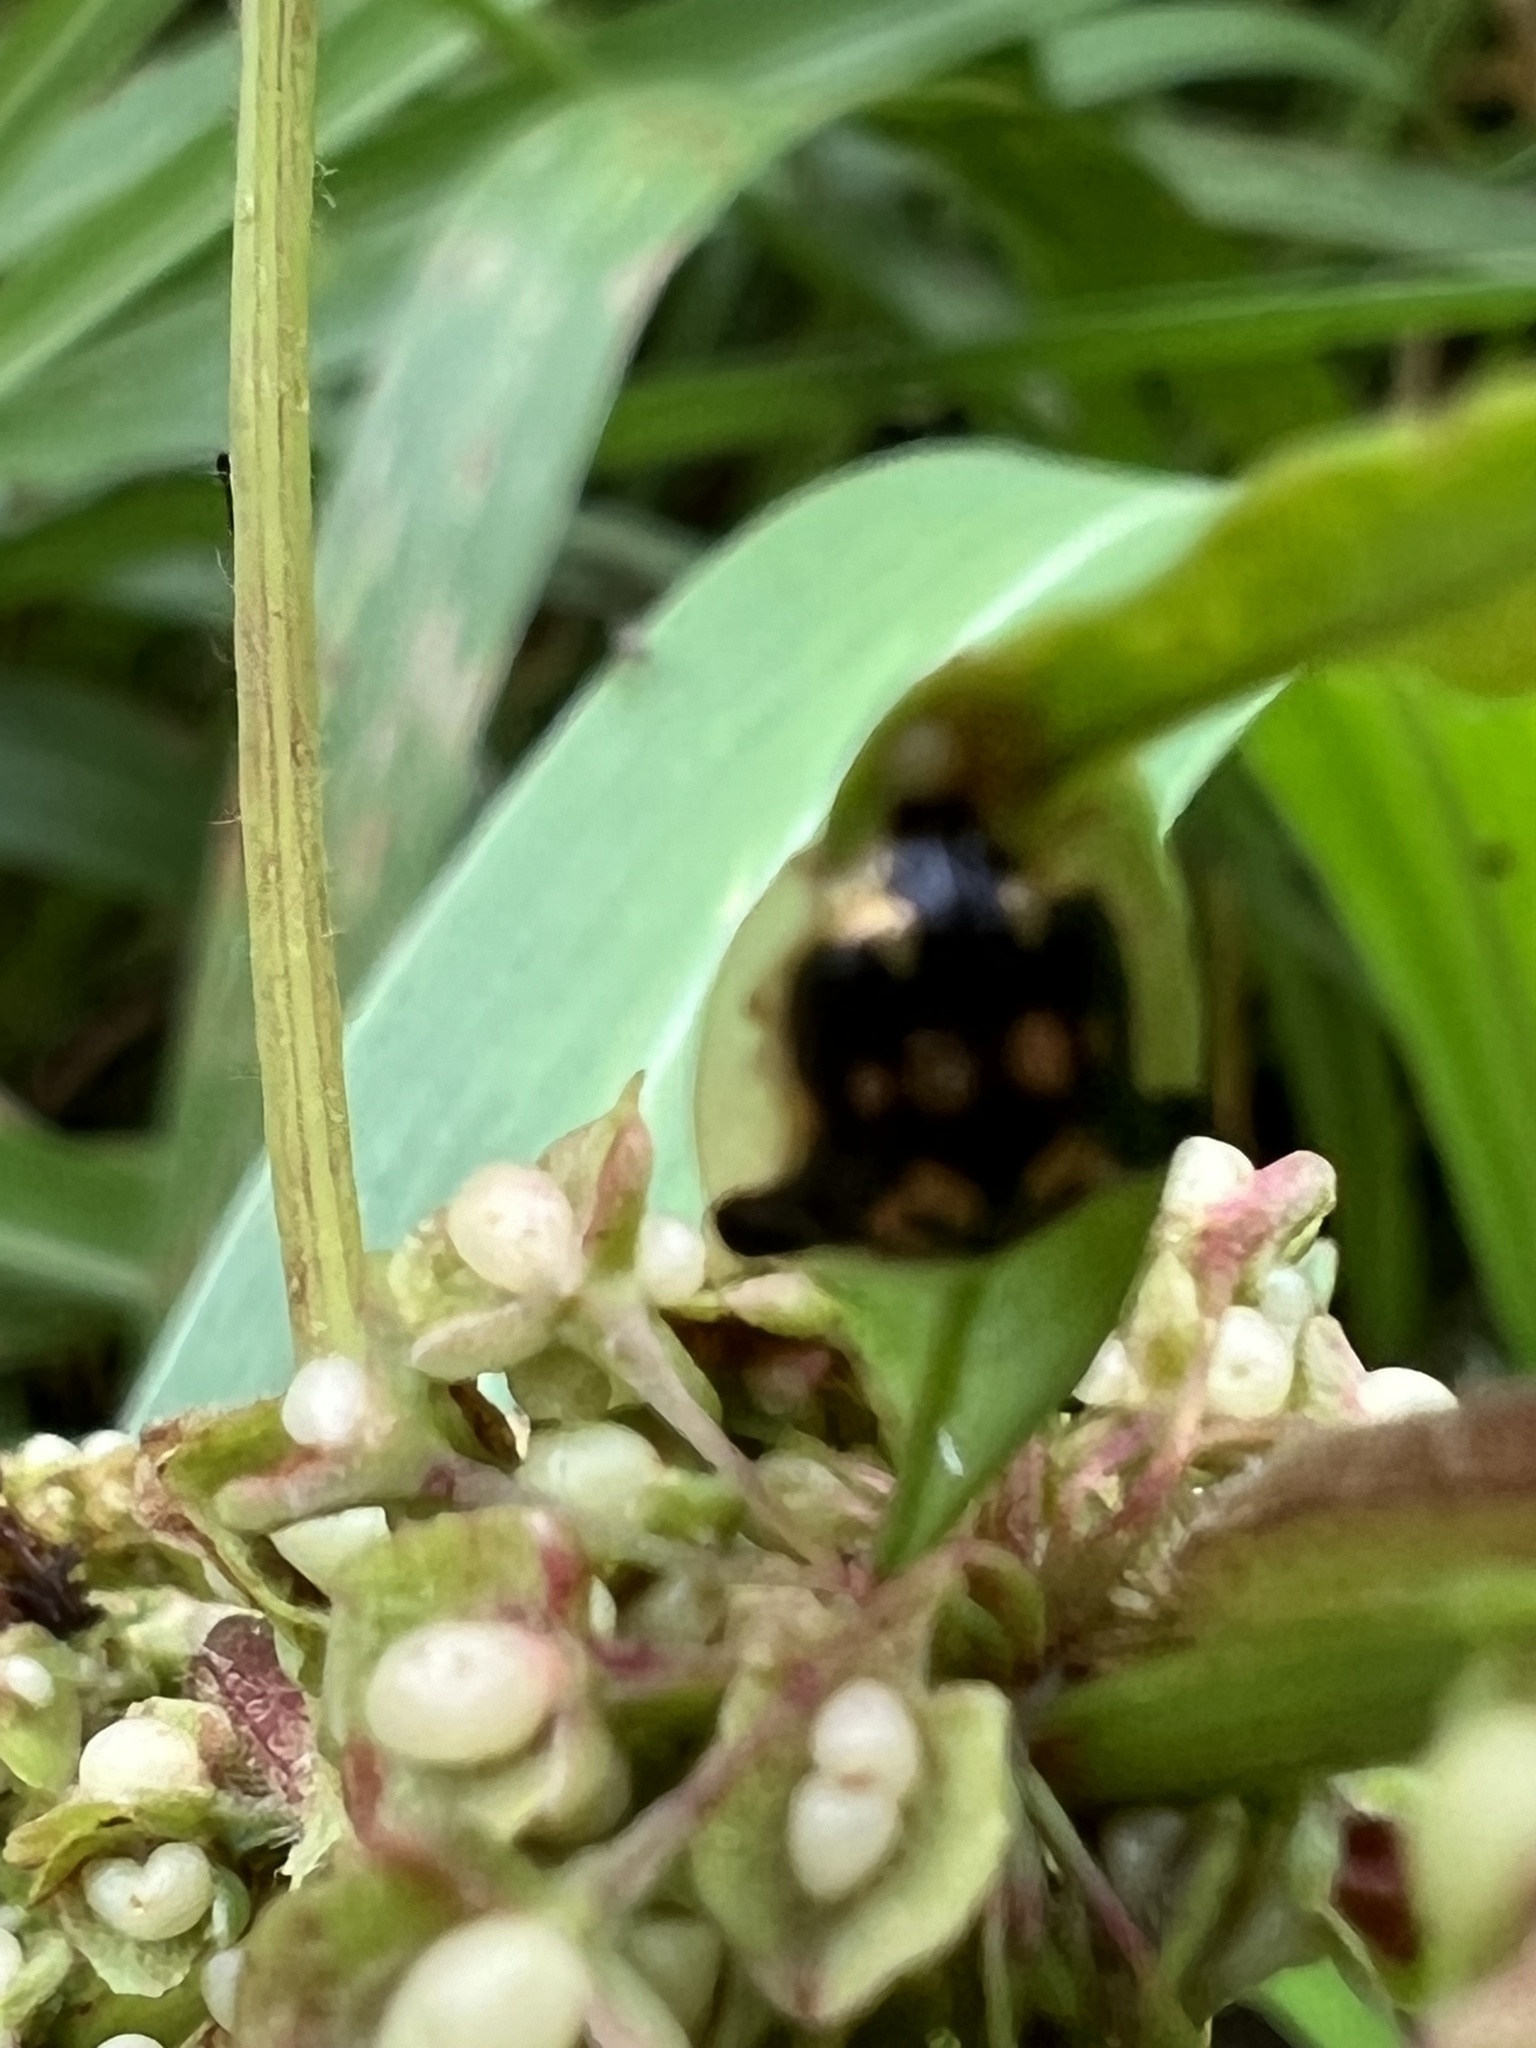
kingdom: Animalia
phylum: Arthropoda
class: Insecta
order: Coleoptera
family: Chrysomelidae
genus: Deloyala
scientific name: Deloyala guttata
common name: Mottled tortoise beetle
